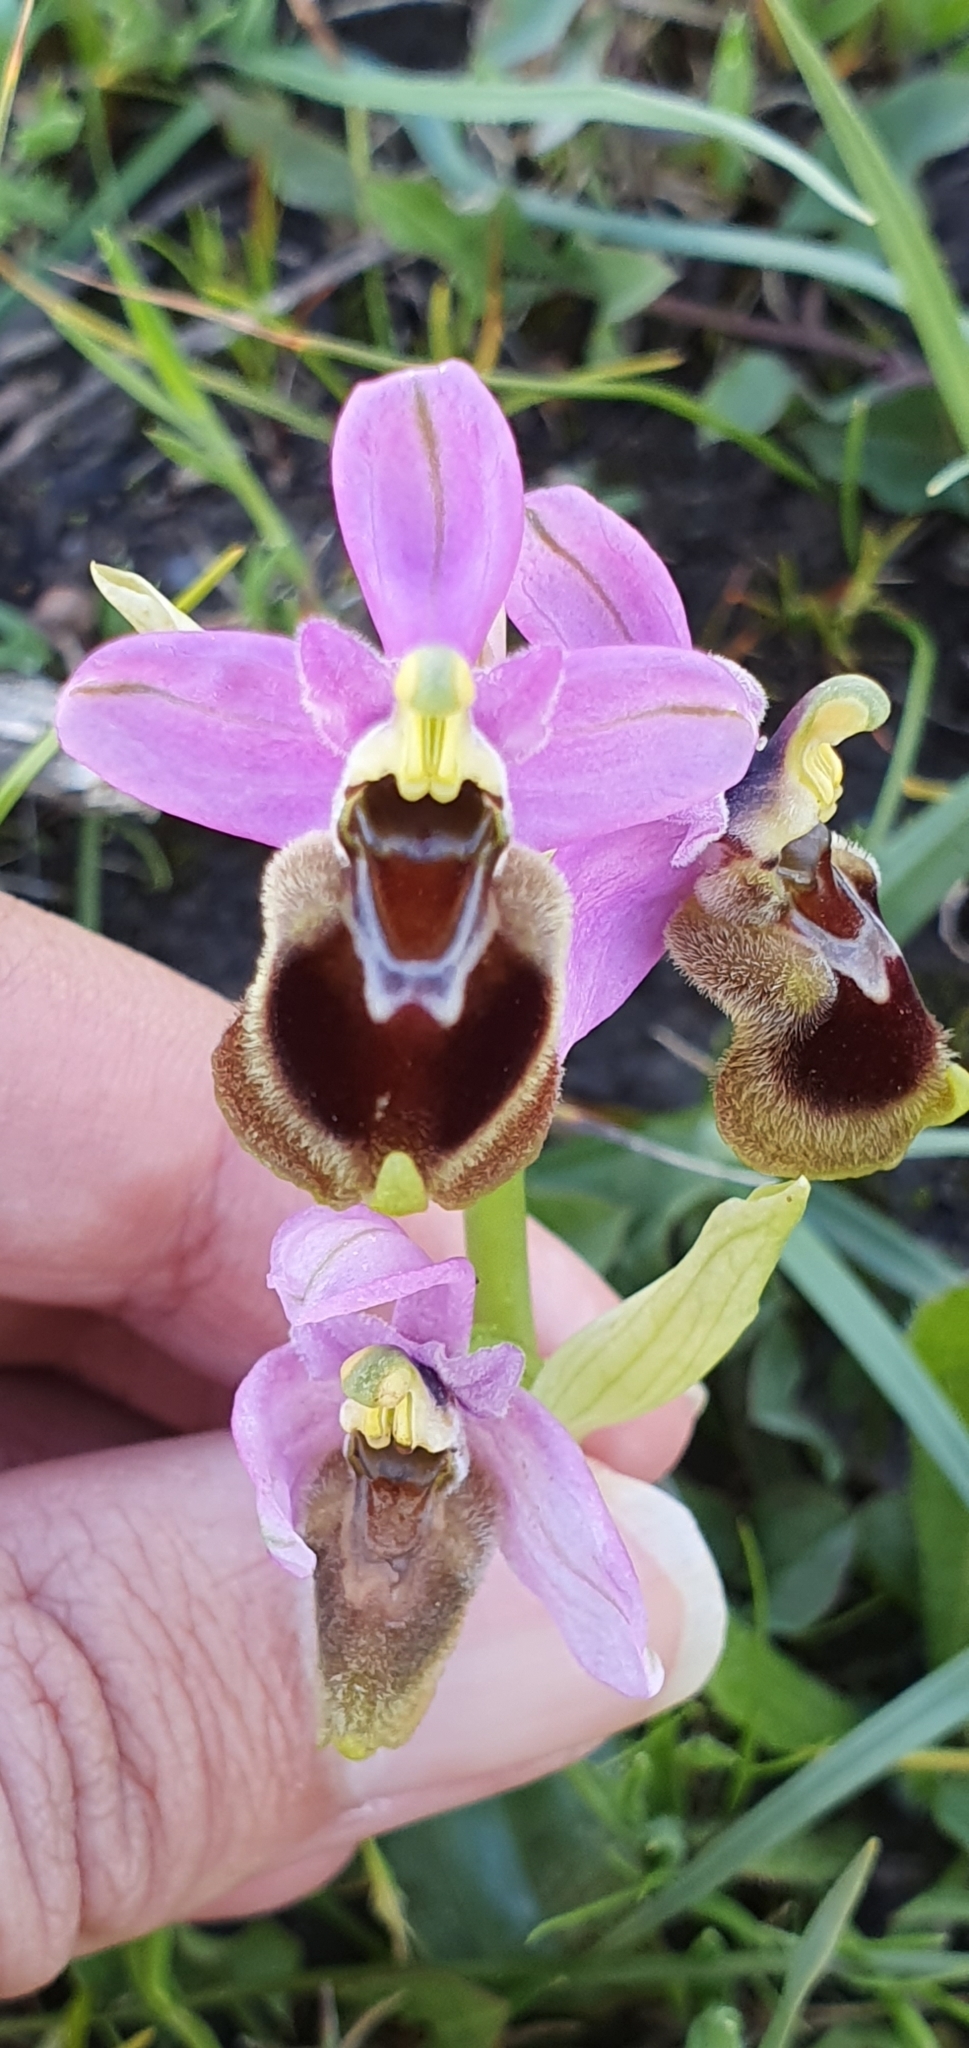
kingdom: Plantae
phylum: Tracheophyta
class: Liliopsida
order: Asparagales
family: Orchidaceae
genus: Ophrys
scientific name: Ophrys tenthredinifera
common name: Sawfly orchid
